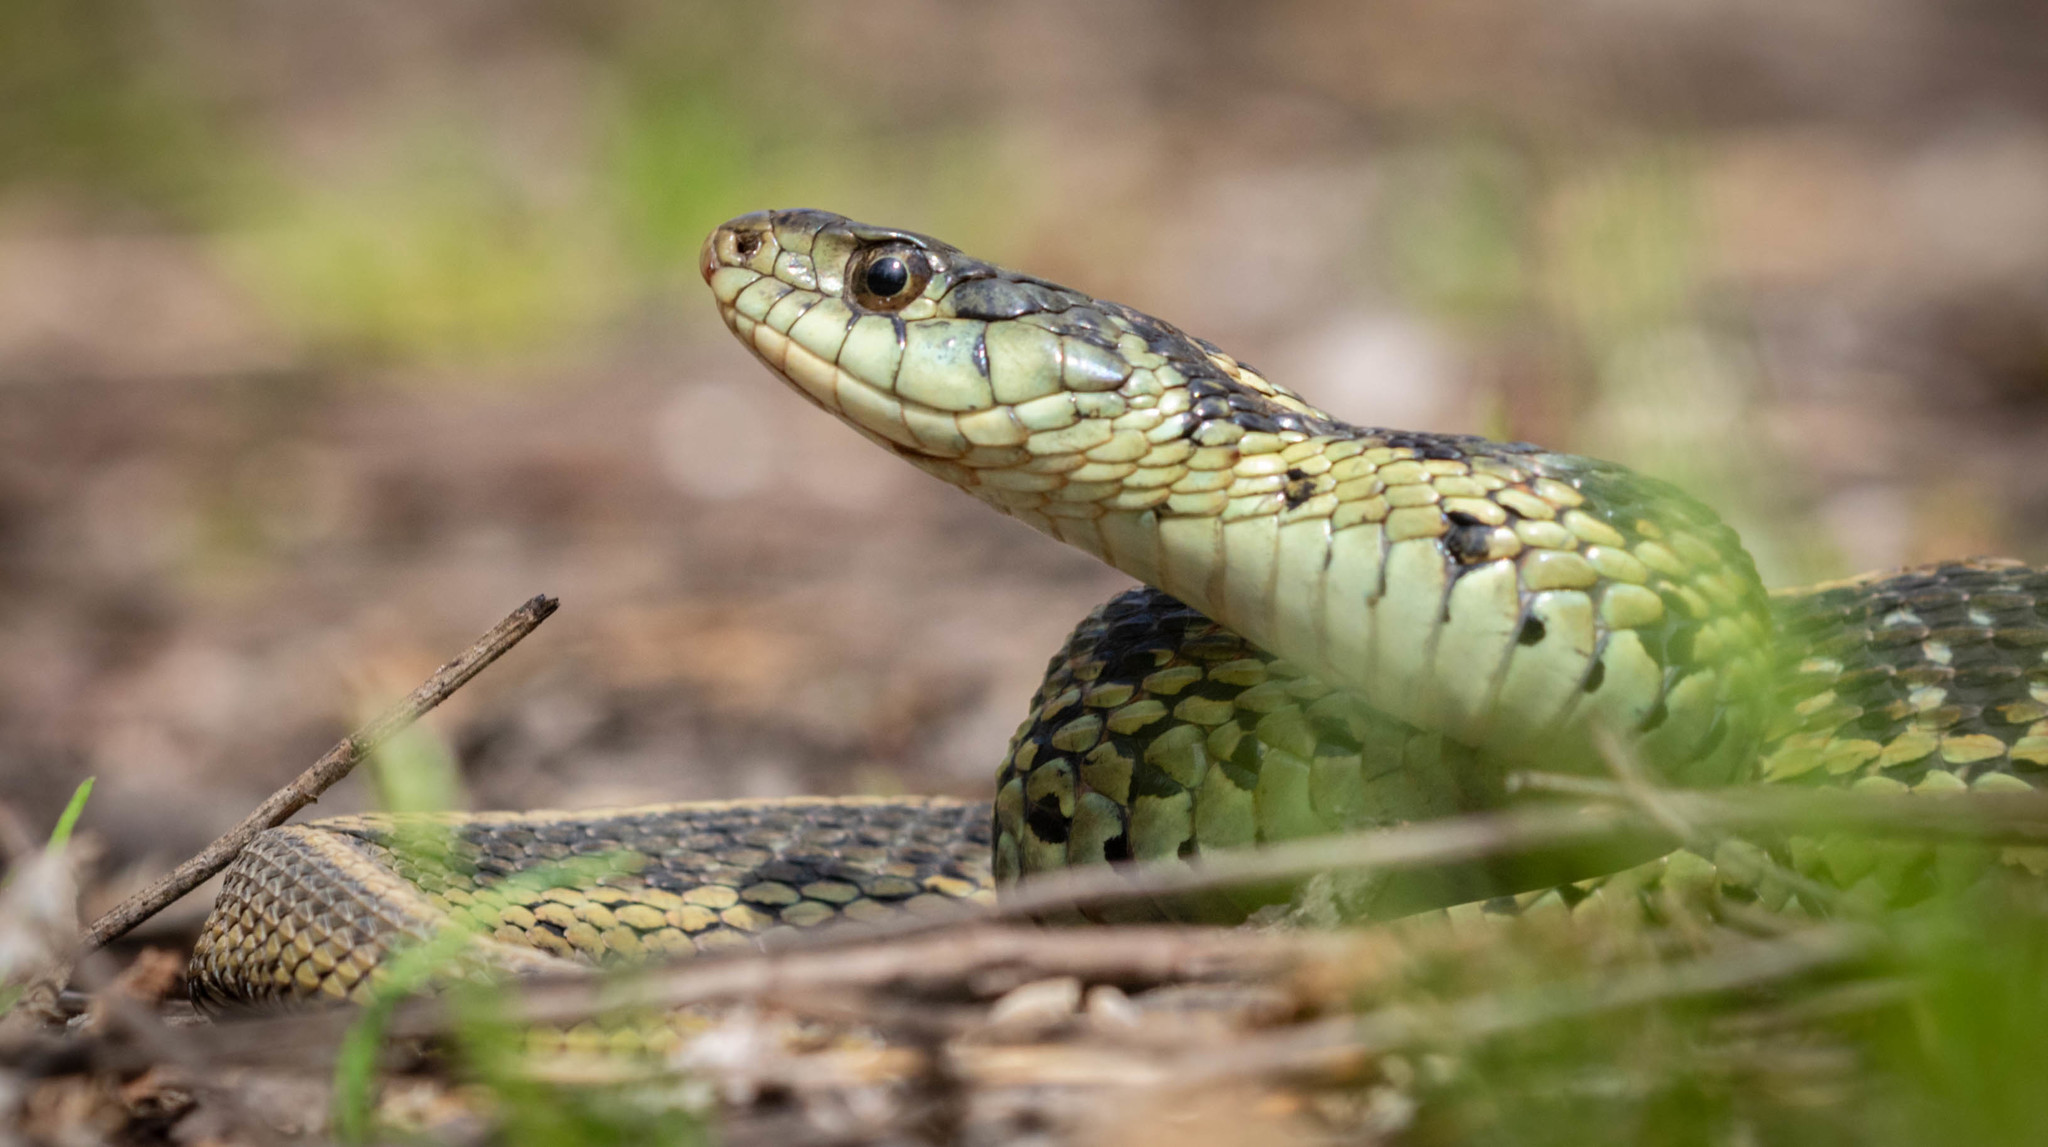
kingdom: Animalia
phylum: Chordata
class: Squamata
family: Colubridae
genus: Thamnophis
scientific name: Thamnophis sirtalis
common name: Common garter snake
